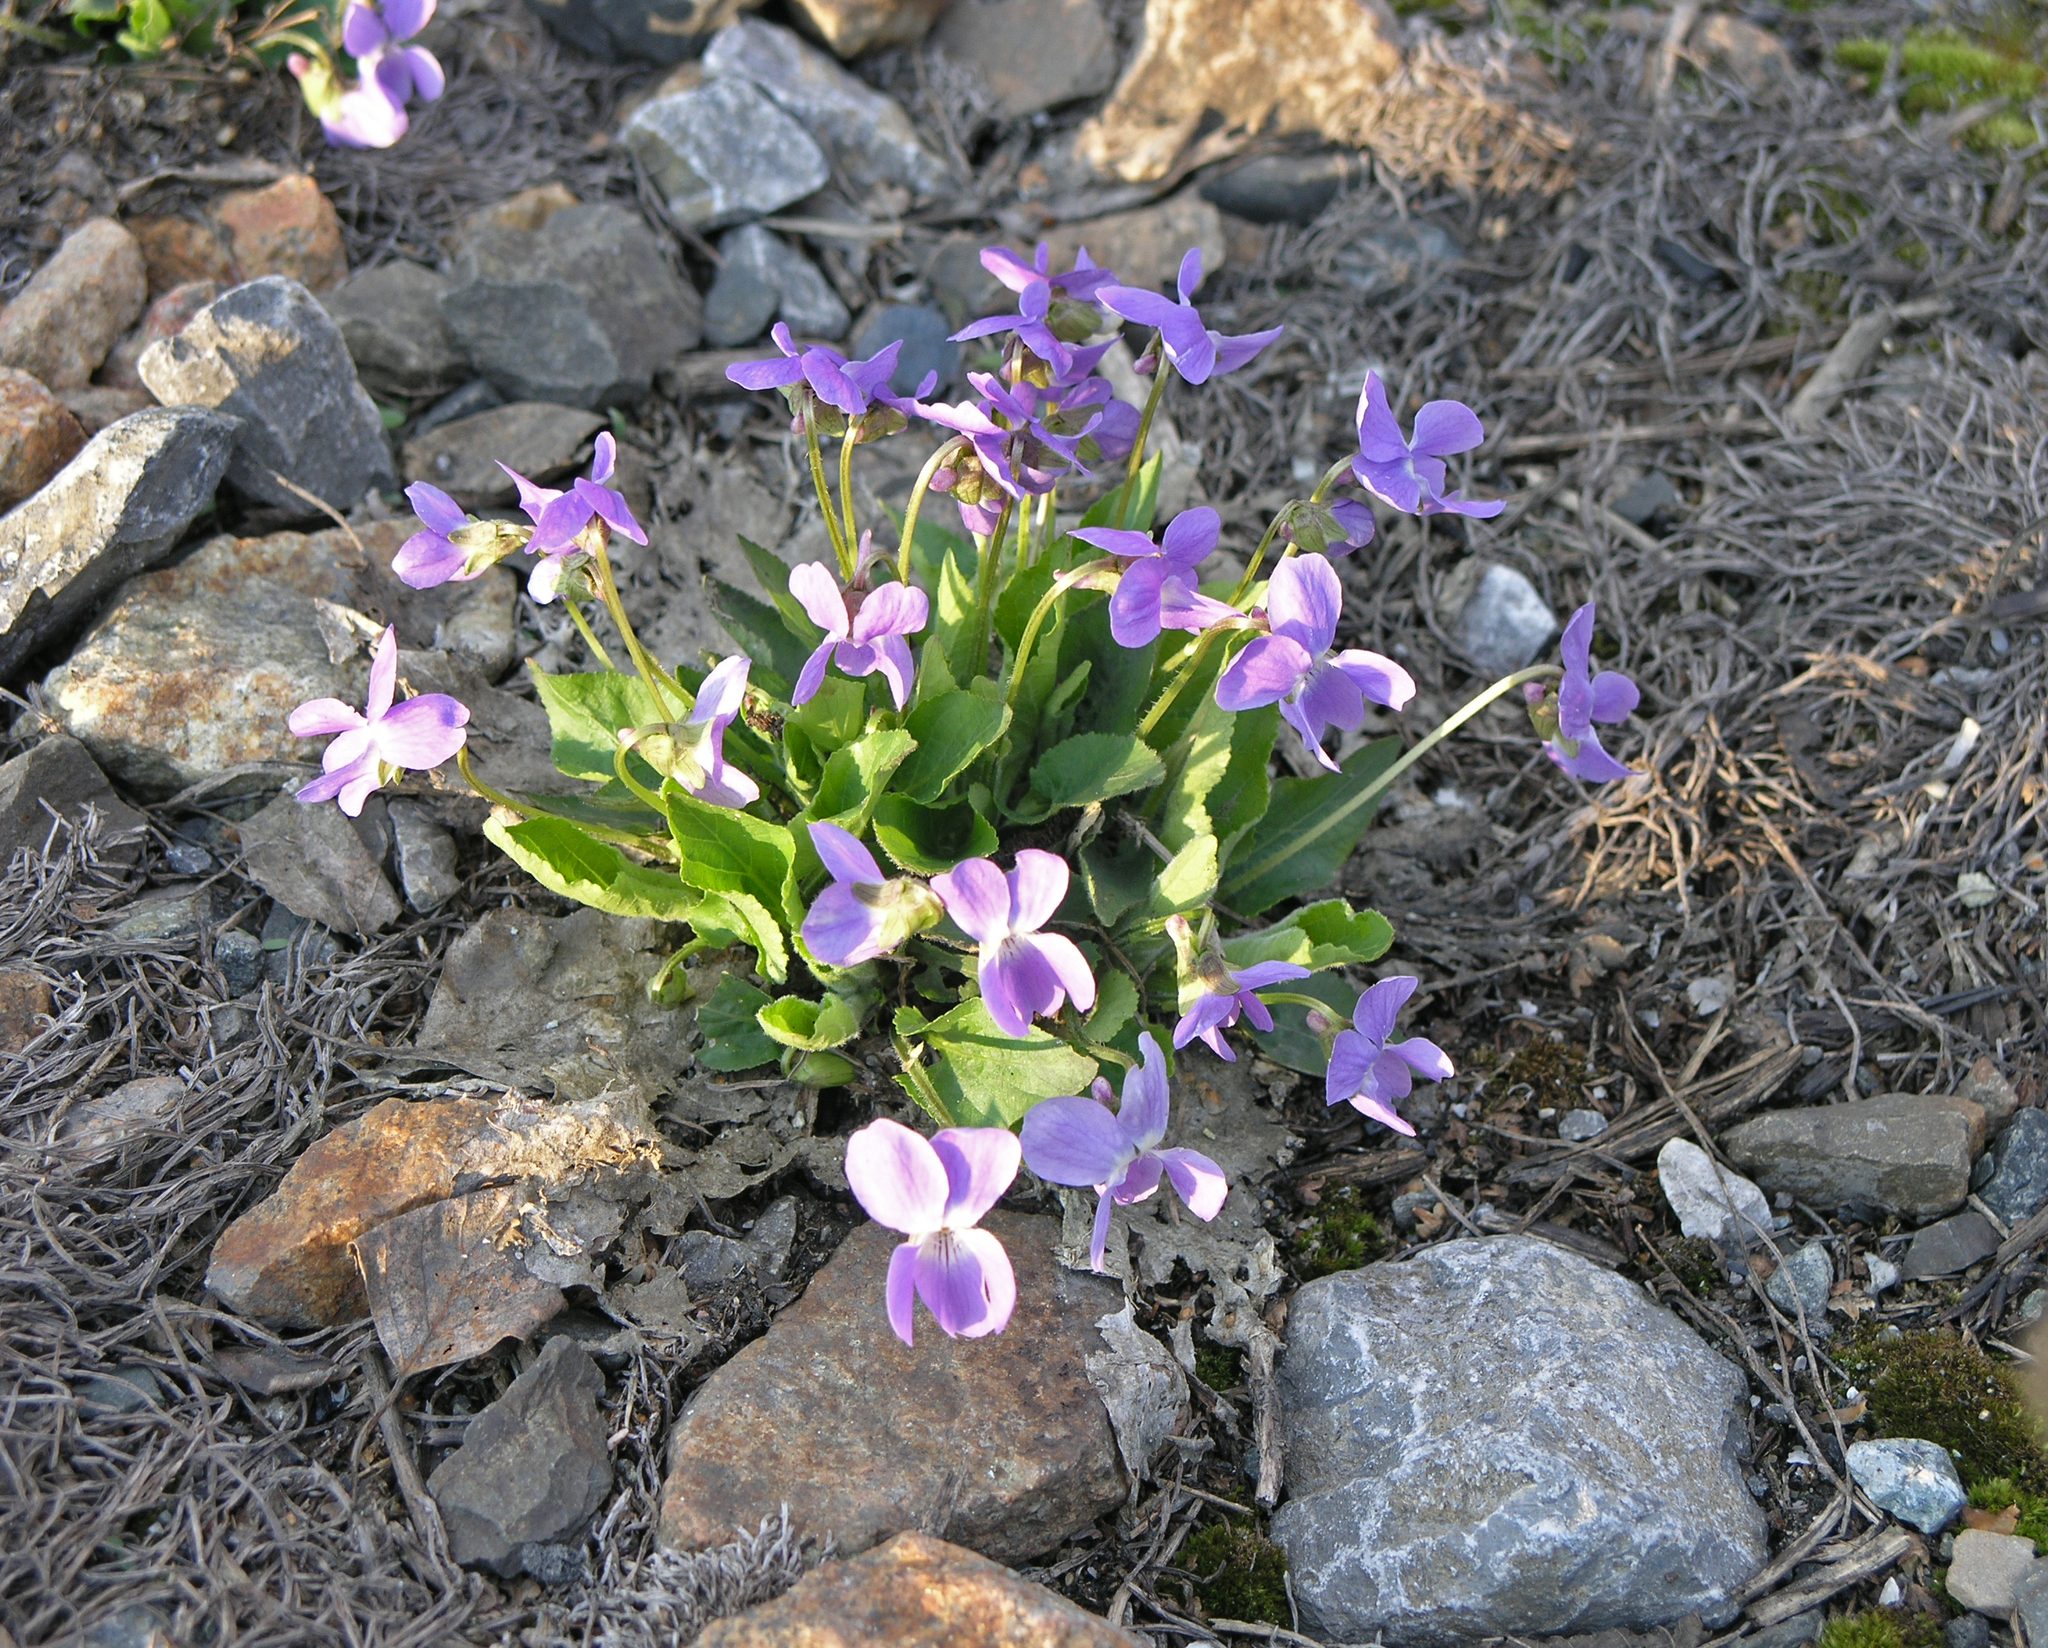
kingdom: Plantae
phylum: Tracheophyta
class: Magnoliopsida
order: Malpighiales
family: Violaceae
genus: Viola
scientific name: Viola hirta
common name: Hairy violet
